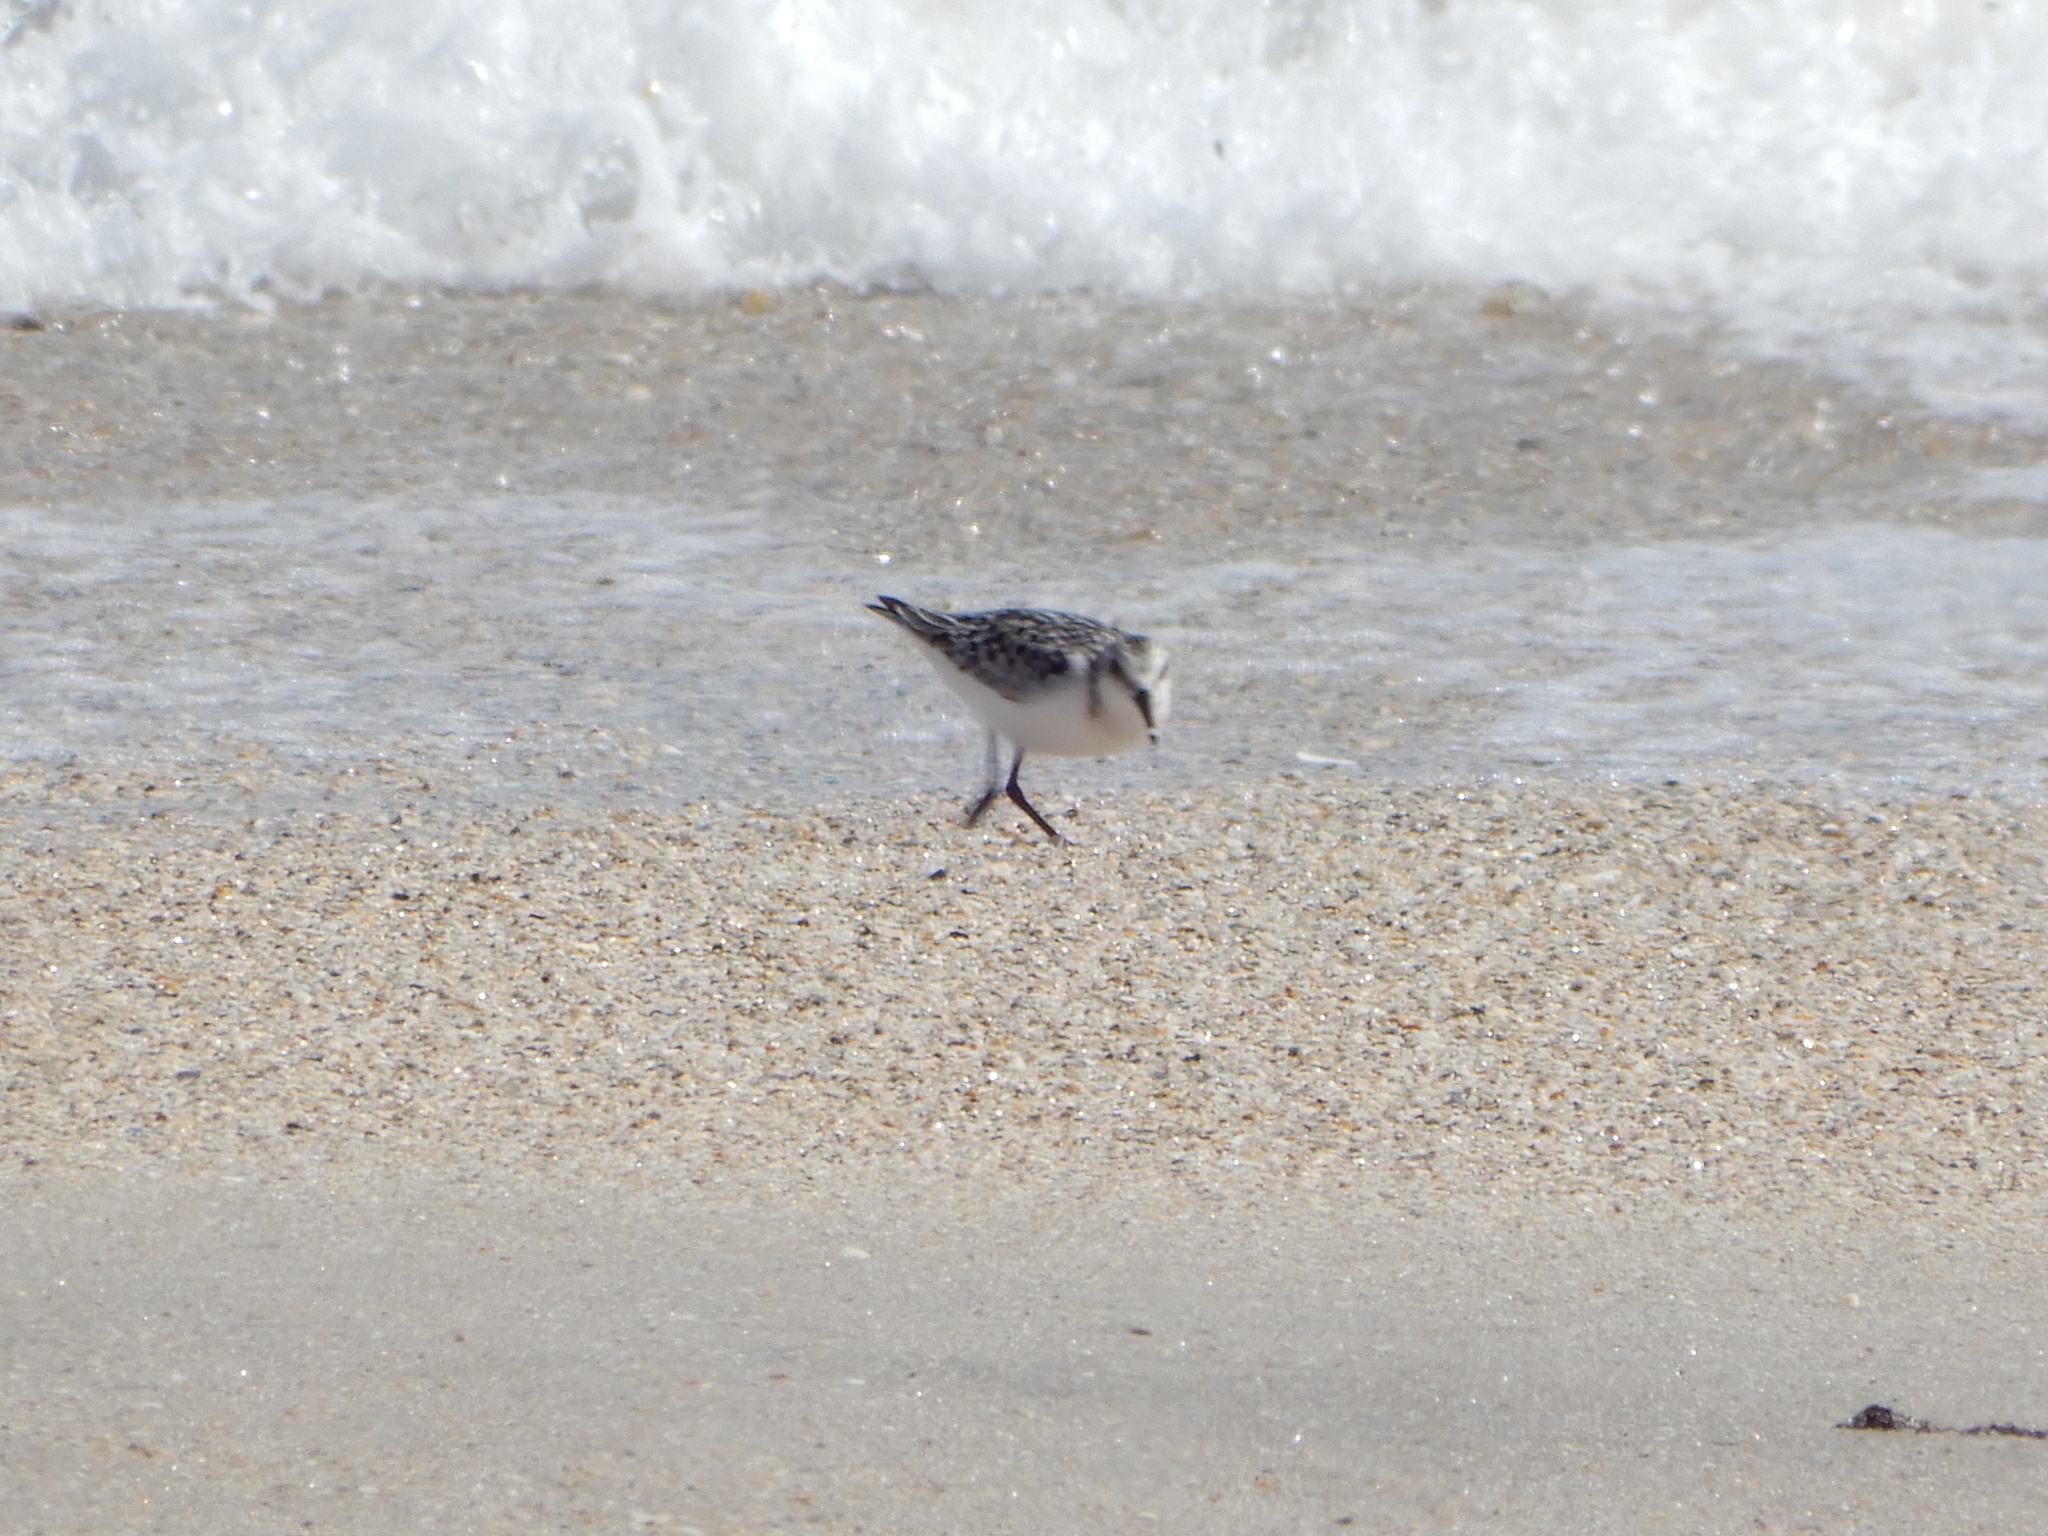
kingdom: Animalia
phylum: Chordata
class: Aves
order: Charadriiformes
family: Scolopacidae
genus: Calidris
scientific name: Calidris alba
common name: Sanderling
